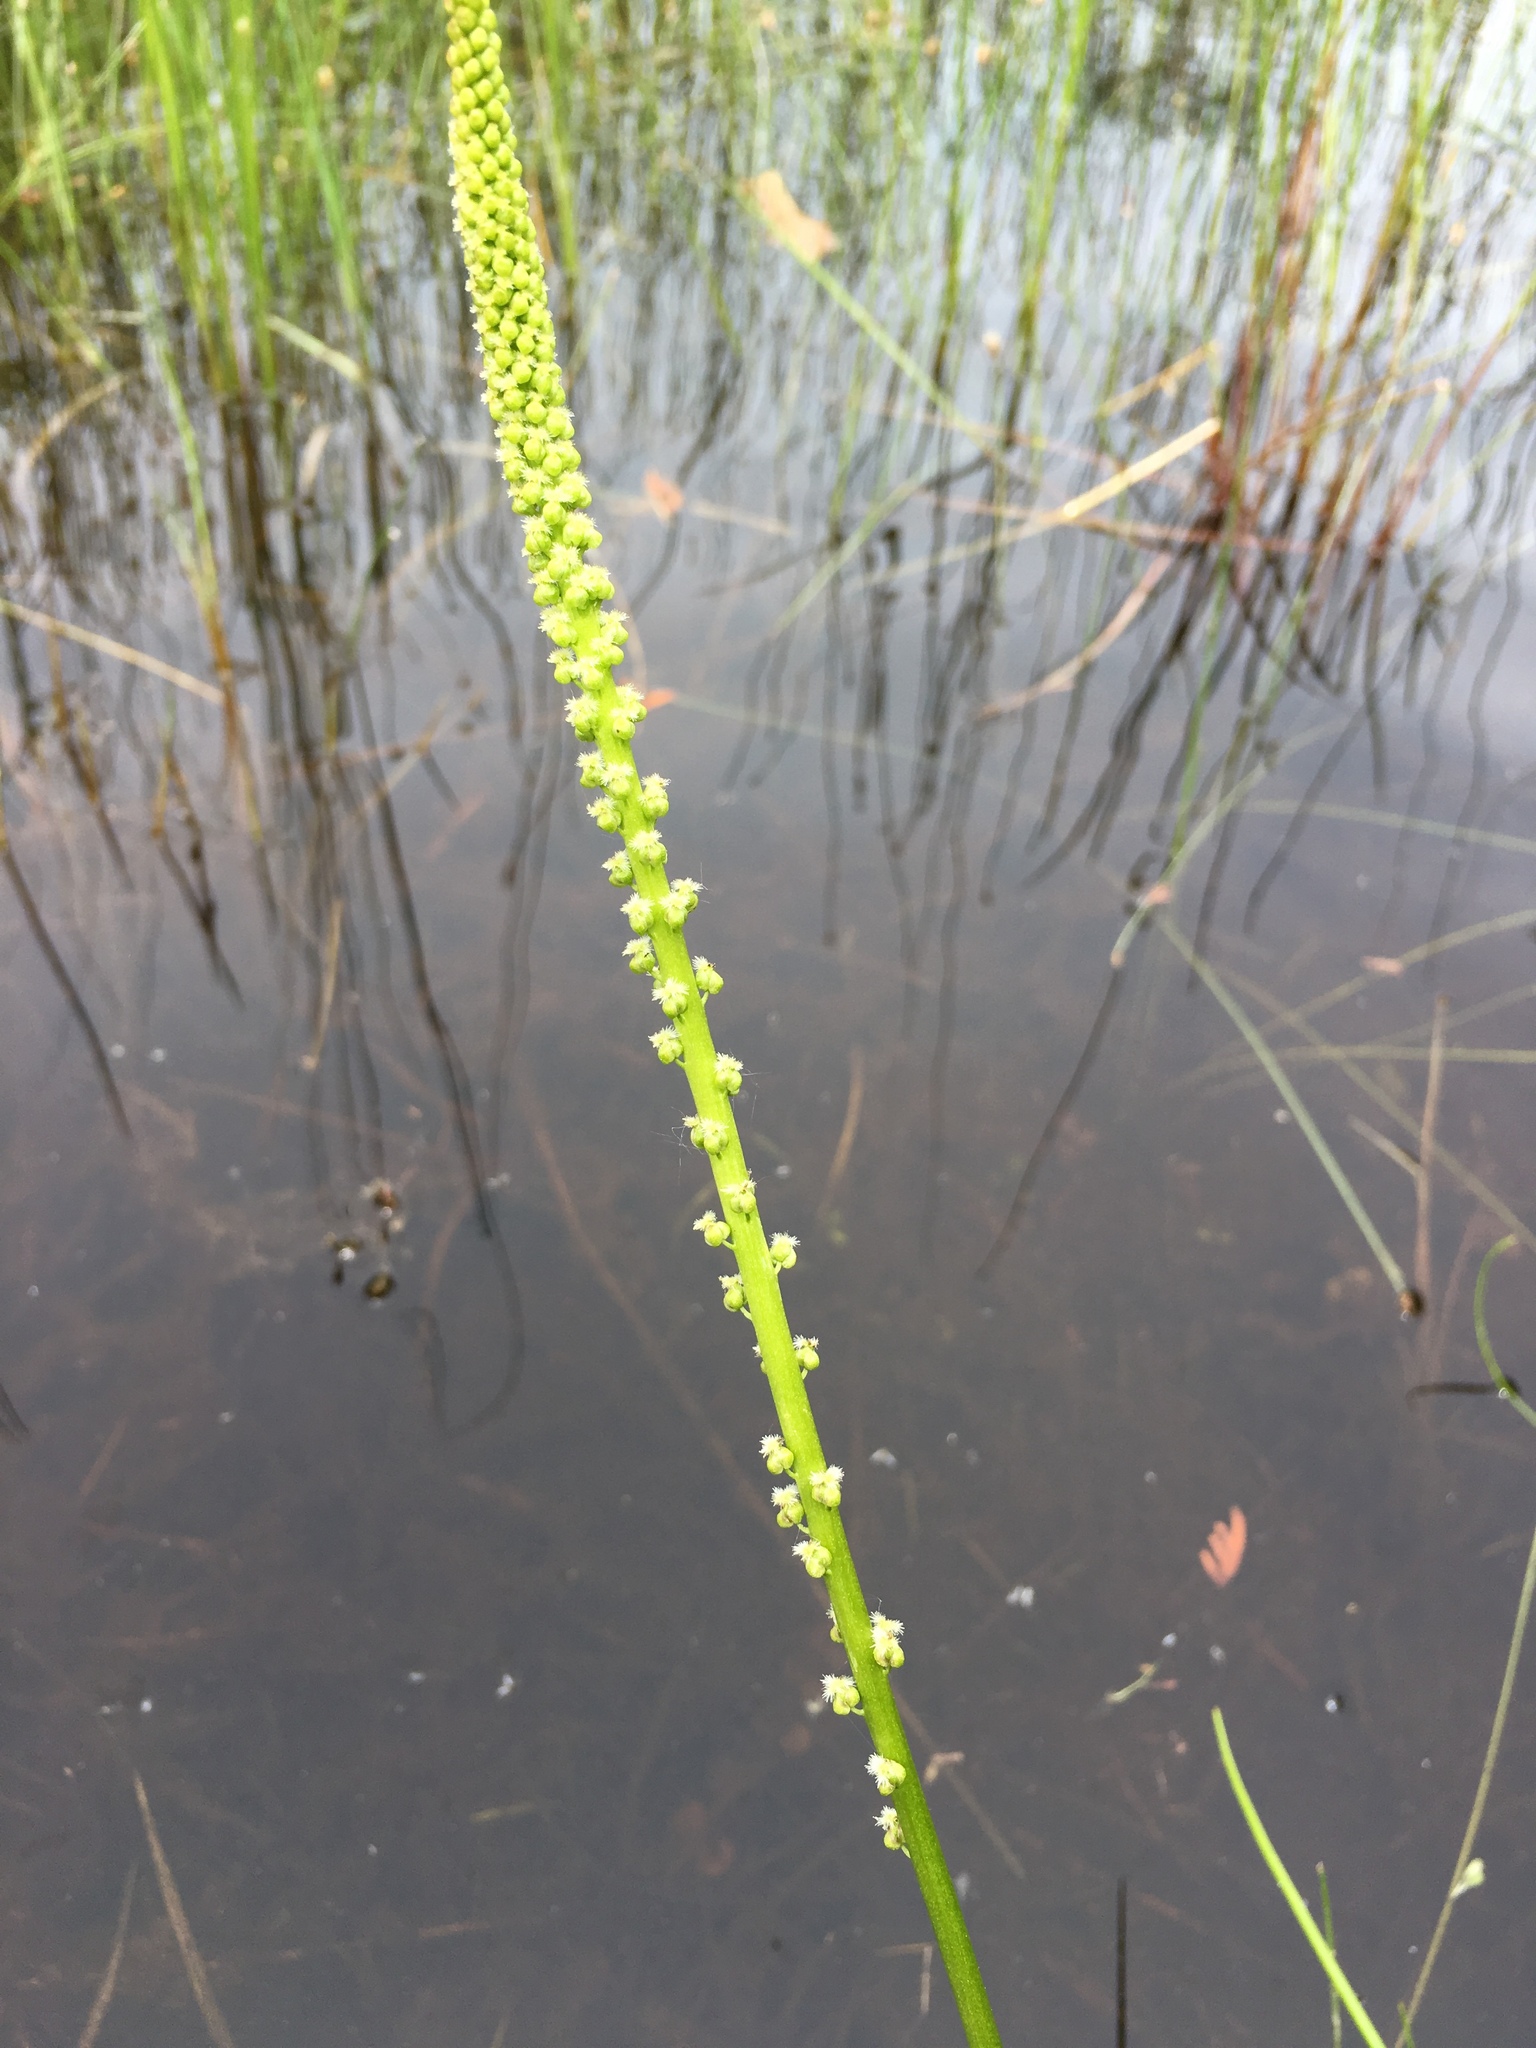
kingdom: Plantae
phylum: Tracheophyta
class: Liliopsida
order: Alismatales
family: Juncaginaceae
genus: Triglochin
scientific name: Triglochin maritima
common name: Sea arrowgrass
